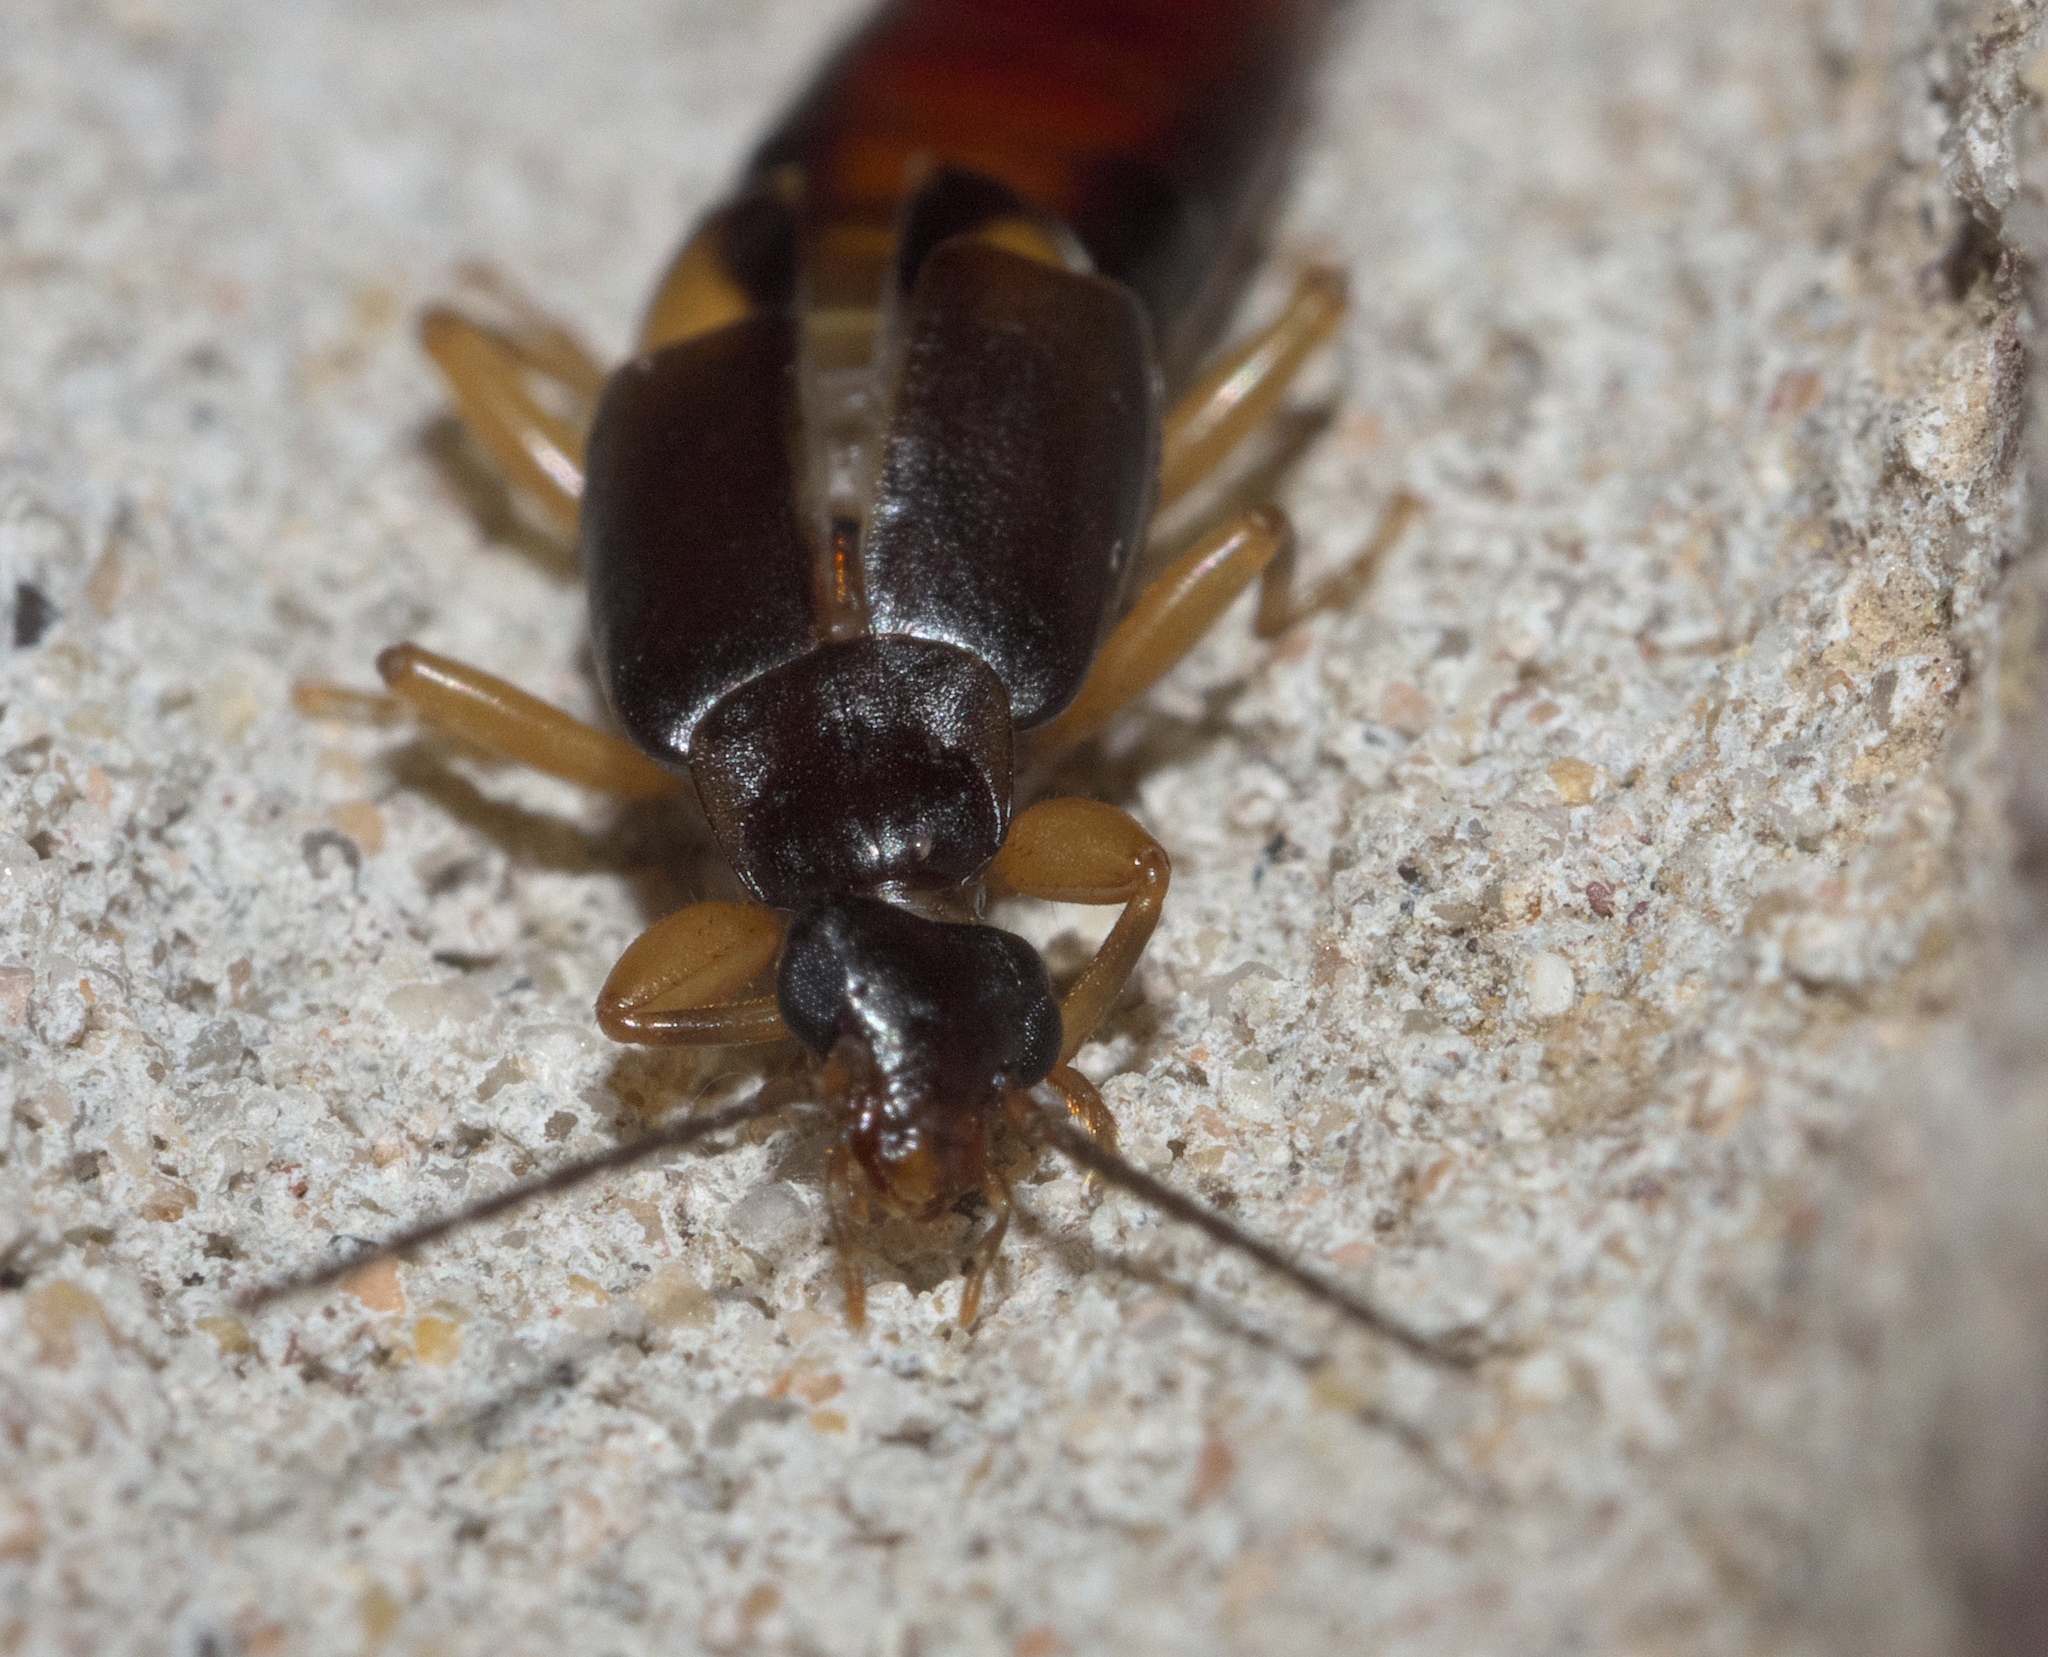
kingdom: Animalia
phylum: Arthropoda
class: Insecta
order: Dermaptera
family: Spongiphoridae
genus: Vostox
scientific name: Vostox brunneipennis
